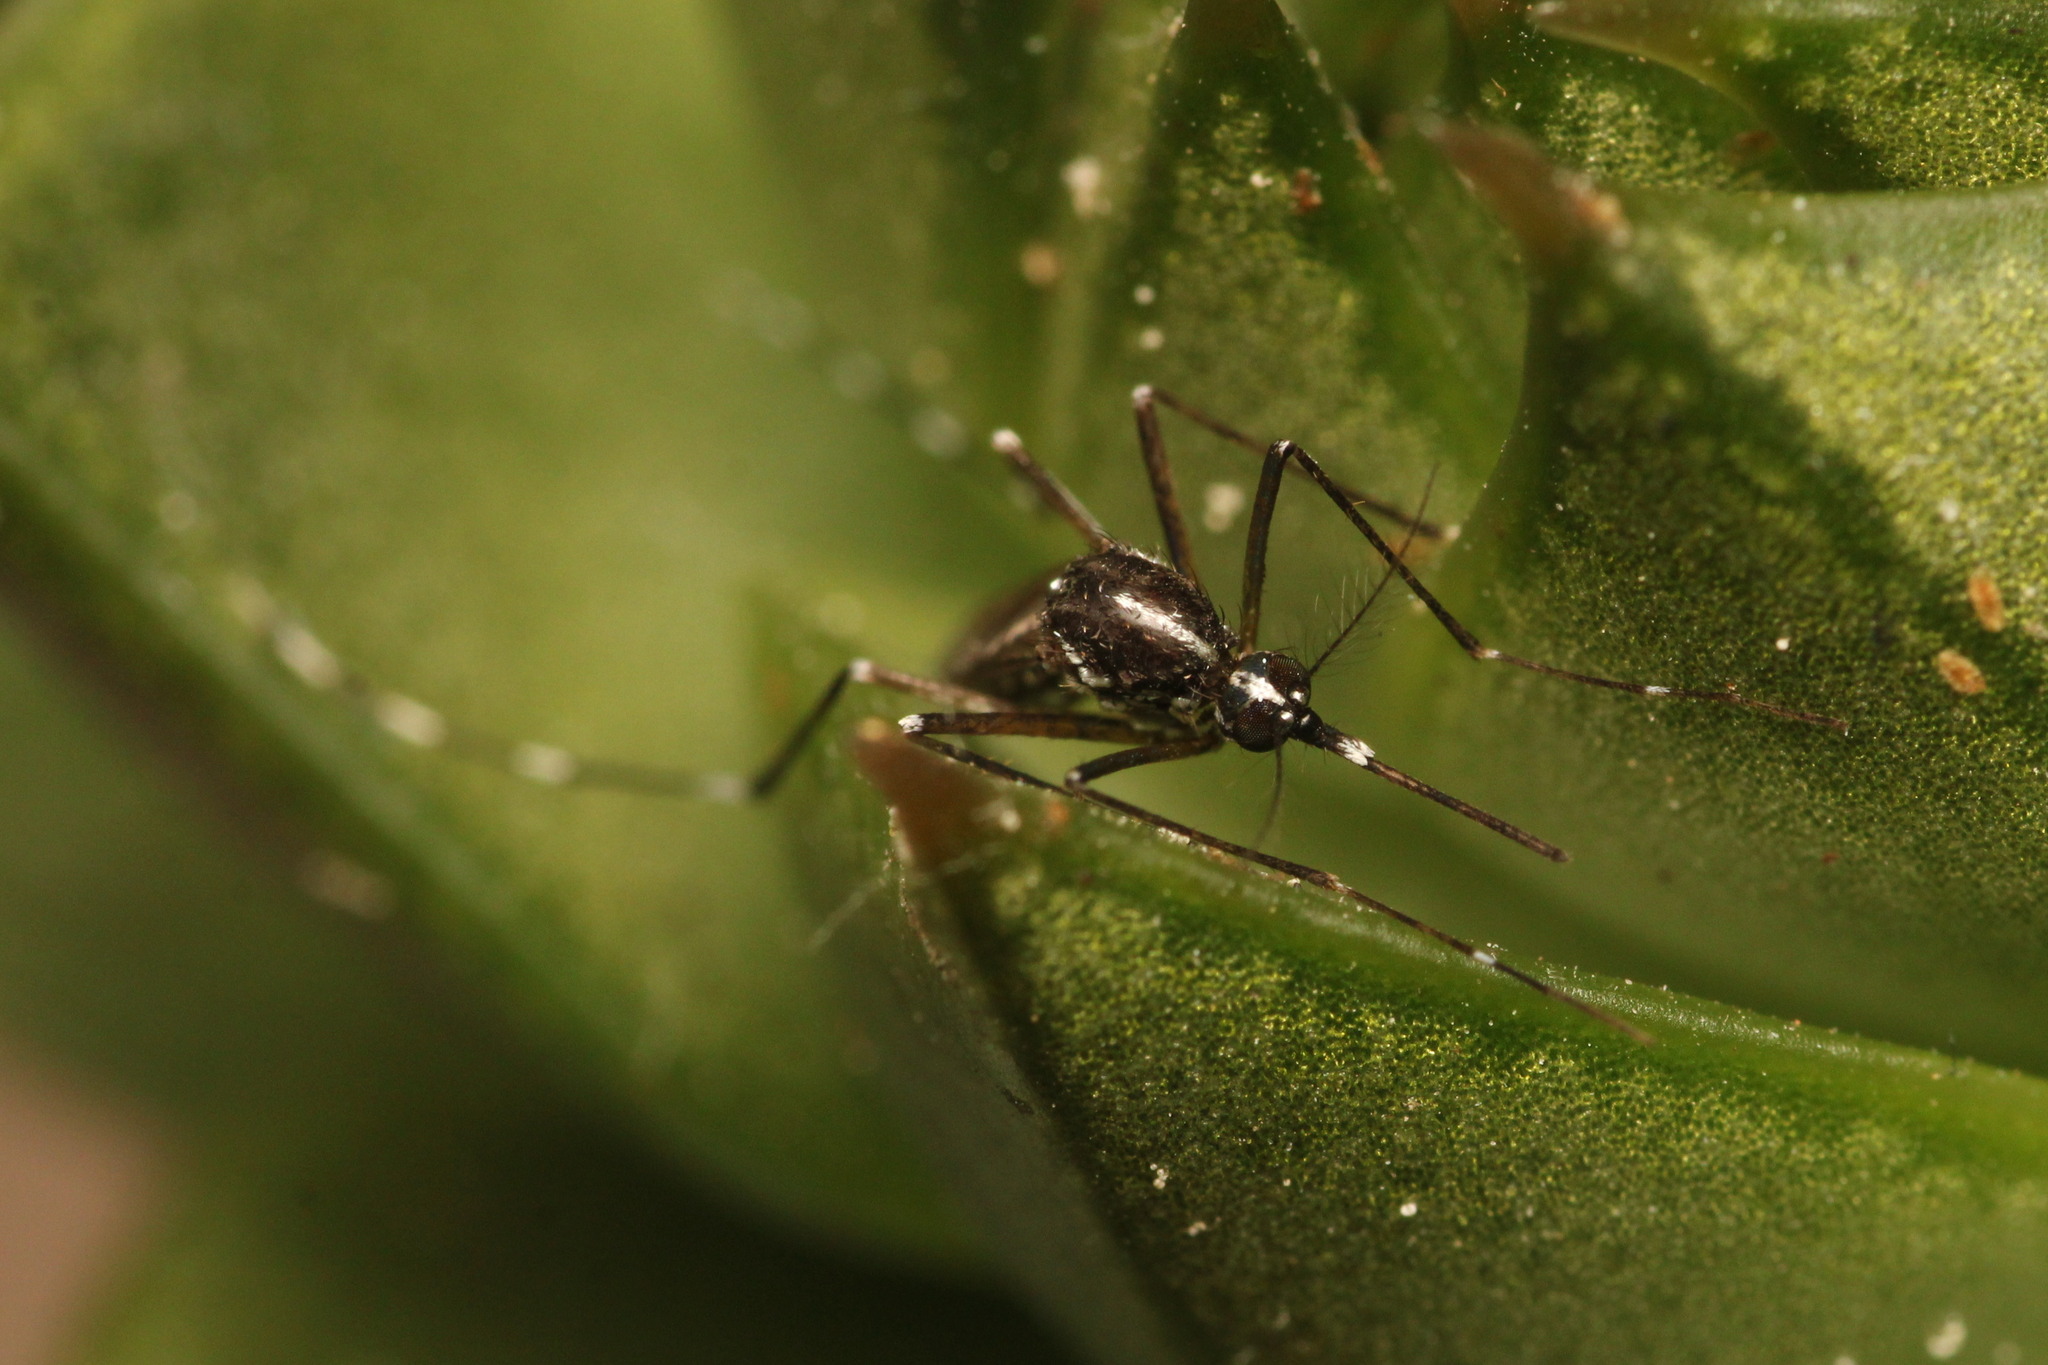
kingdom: Animalia
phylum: Arthropoda
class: Insecta
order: Diptera
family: Culicidae
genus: Aedes
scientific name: Aedes albopictus
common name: Tiger mosquito
